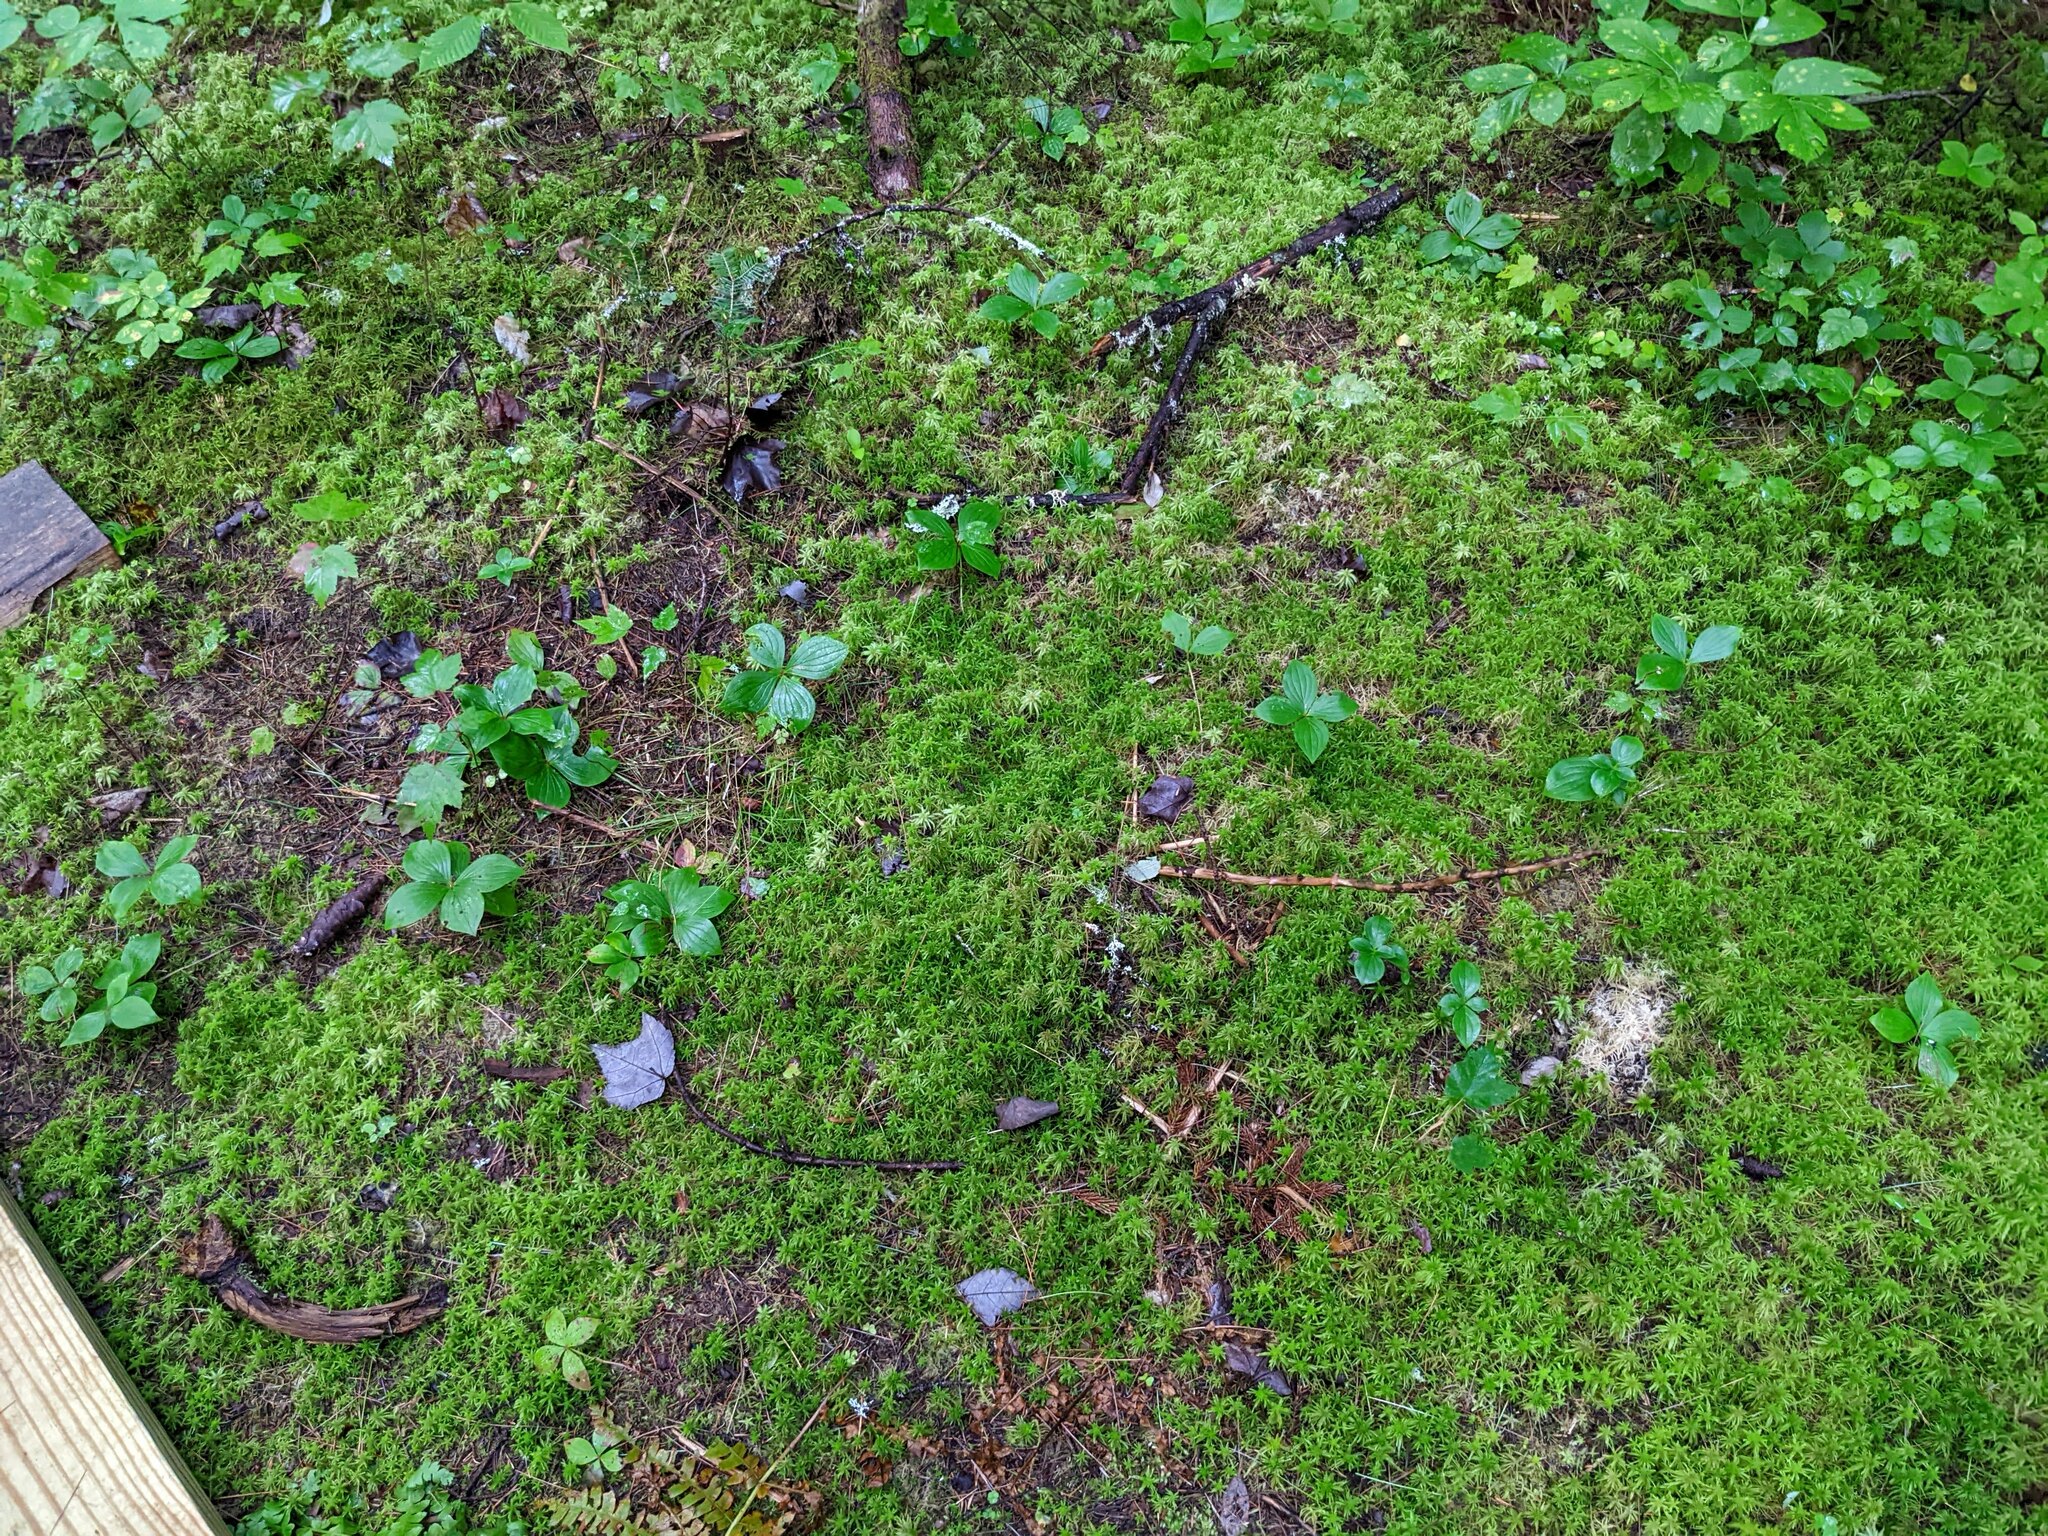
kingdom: Plantae
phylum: Tracheophyta
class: Magnoliopsida
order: Cornales
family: Cornaceae
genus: Cornus
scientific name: Cornus canadensis
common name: Creeping dogwood
